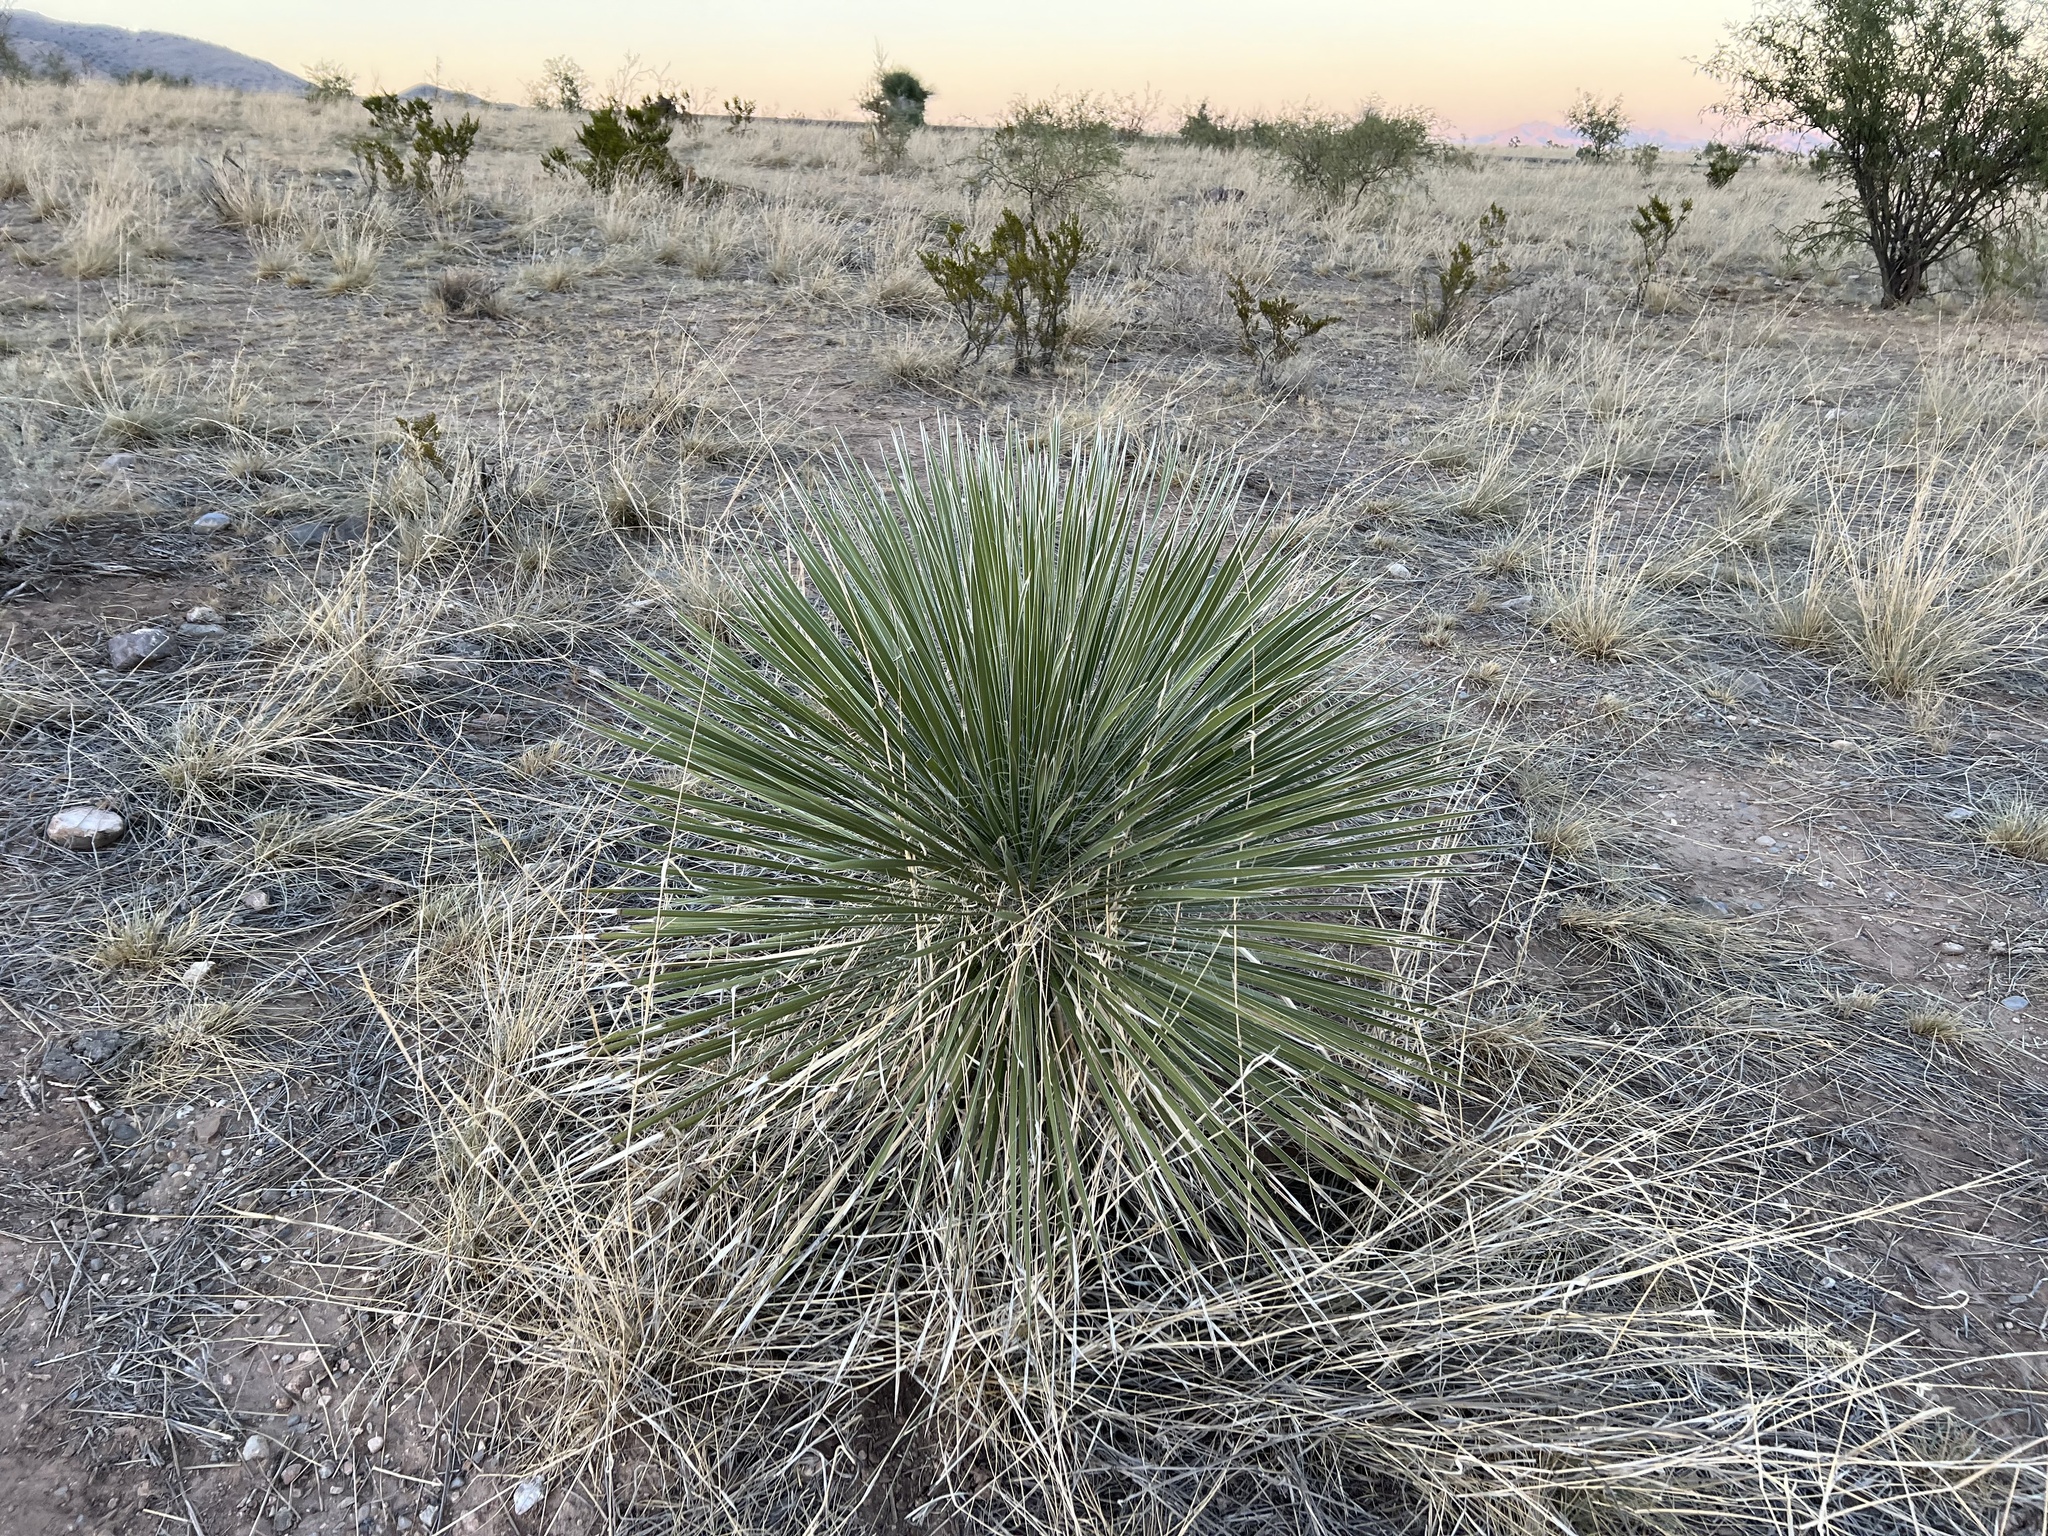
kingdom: Plantae
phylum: Tracheophyta
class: Liliopsida
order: Asparagales
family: Asparagaceae
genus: Yucca
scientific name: Yucca elata
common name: Palmella
